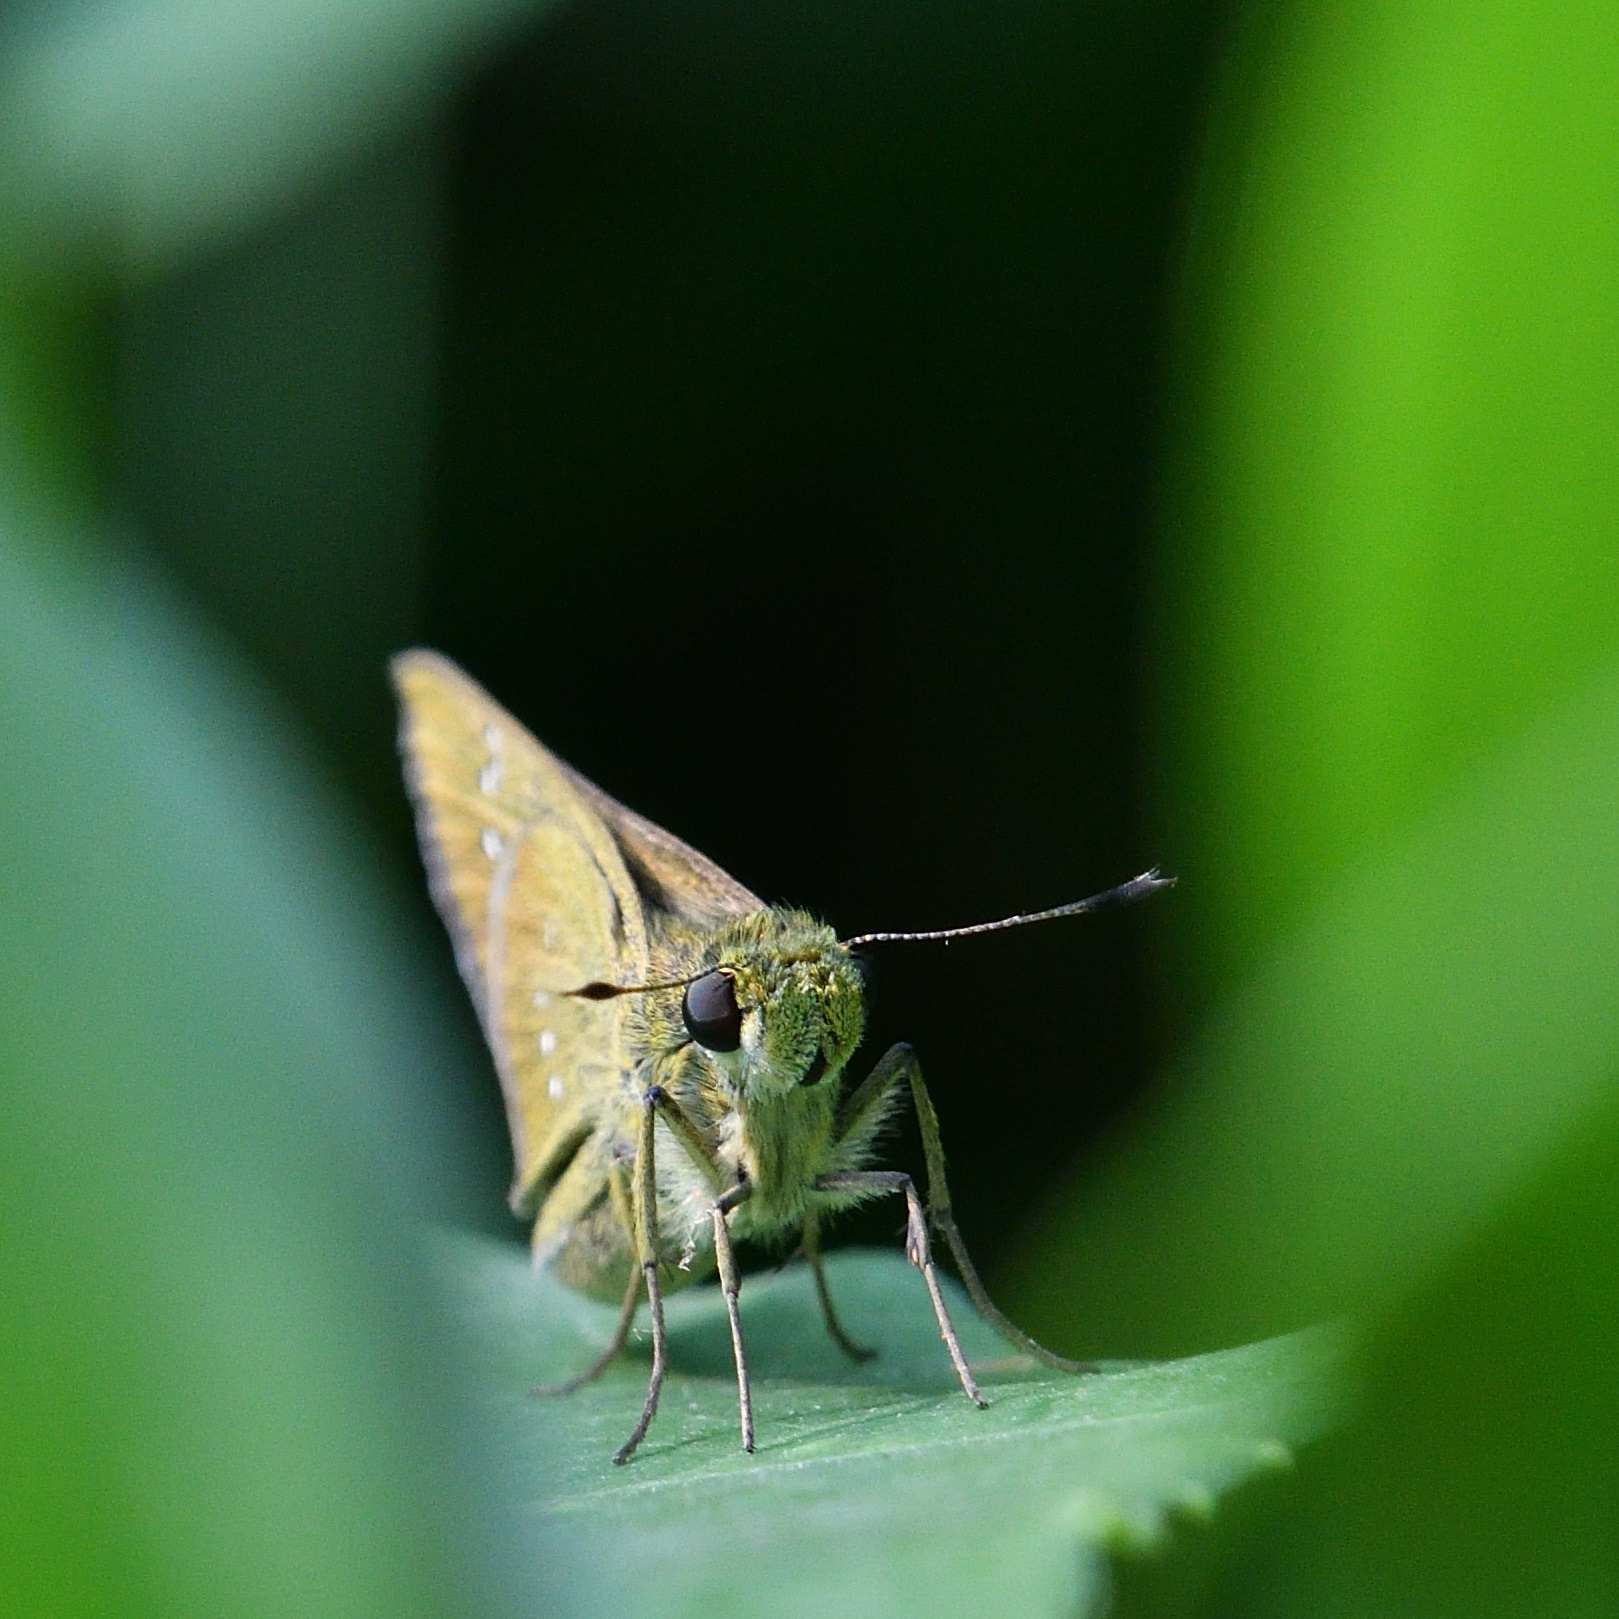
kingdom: Animalia
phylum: Arthropoda
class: Insecta
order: Lepidoptera
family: Hesperiidae
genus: Borbo
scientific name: Borbo cinnara
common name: Formosan swift
